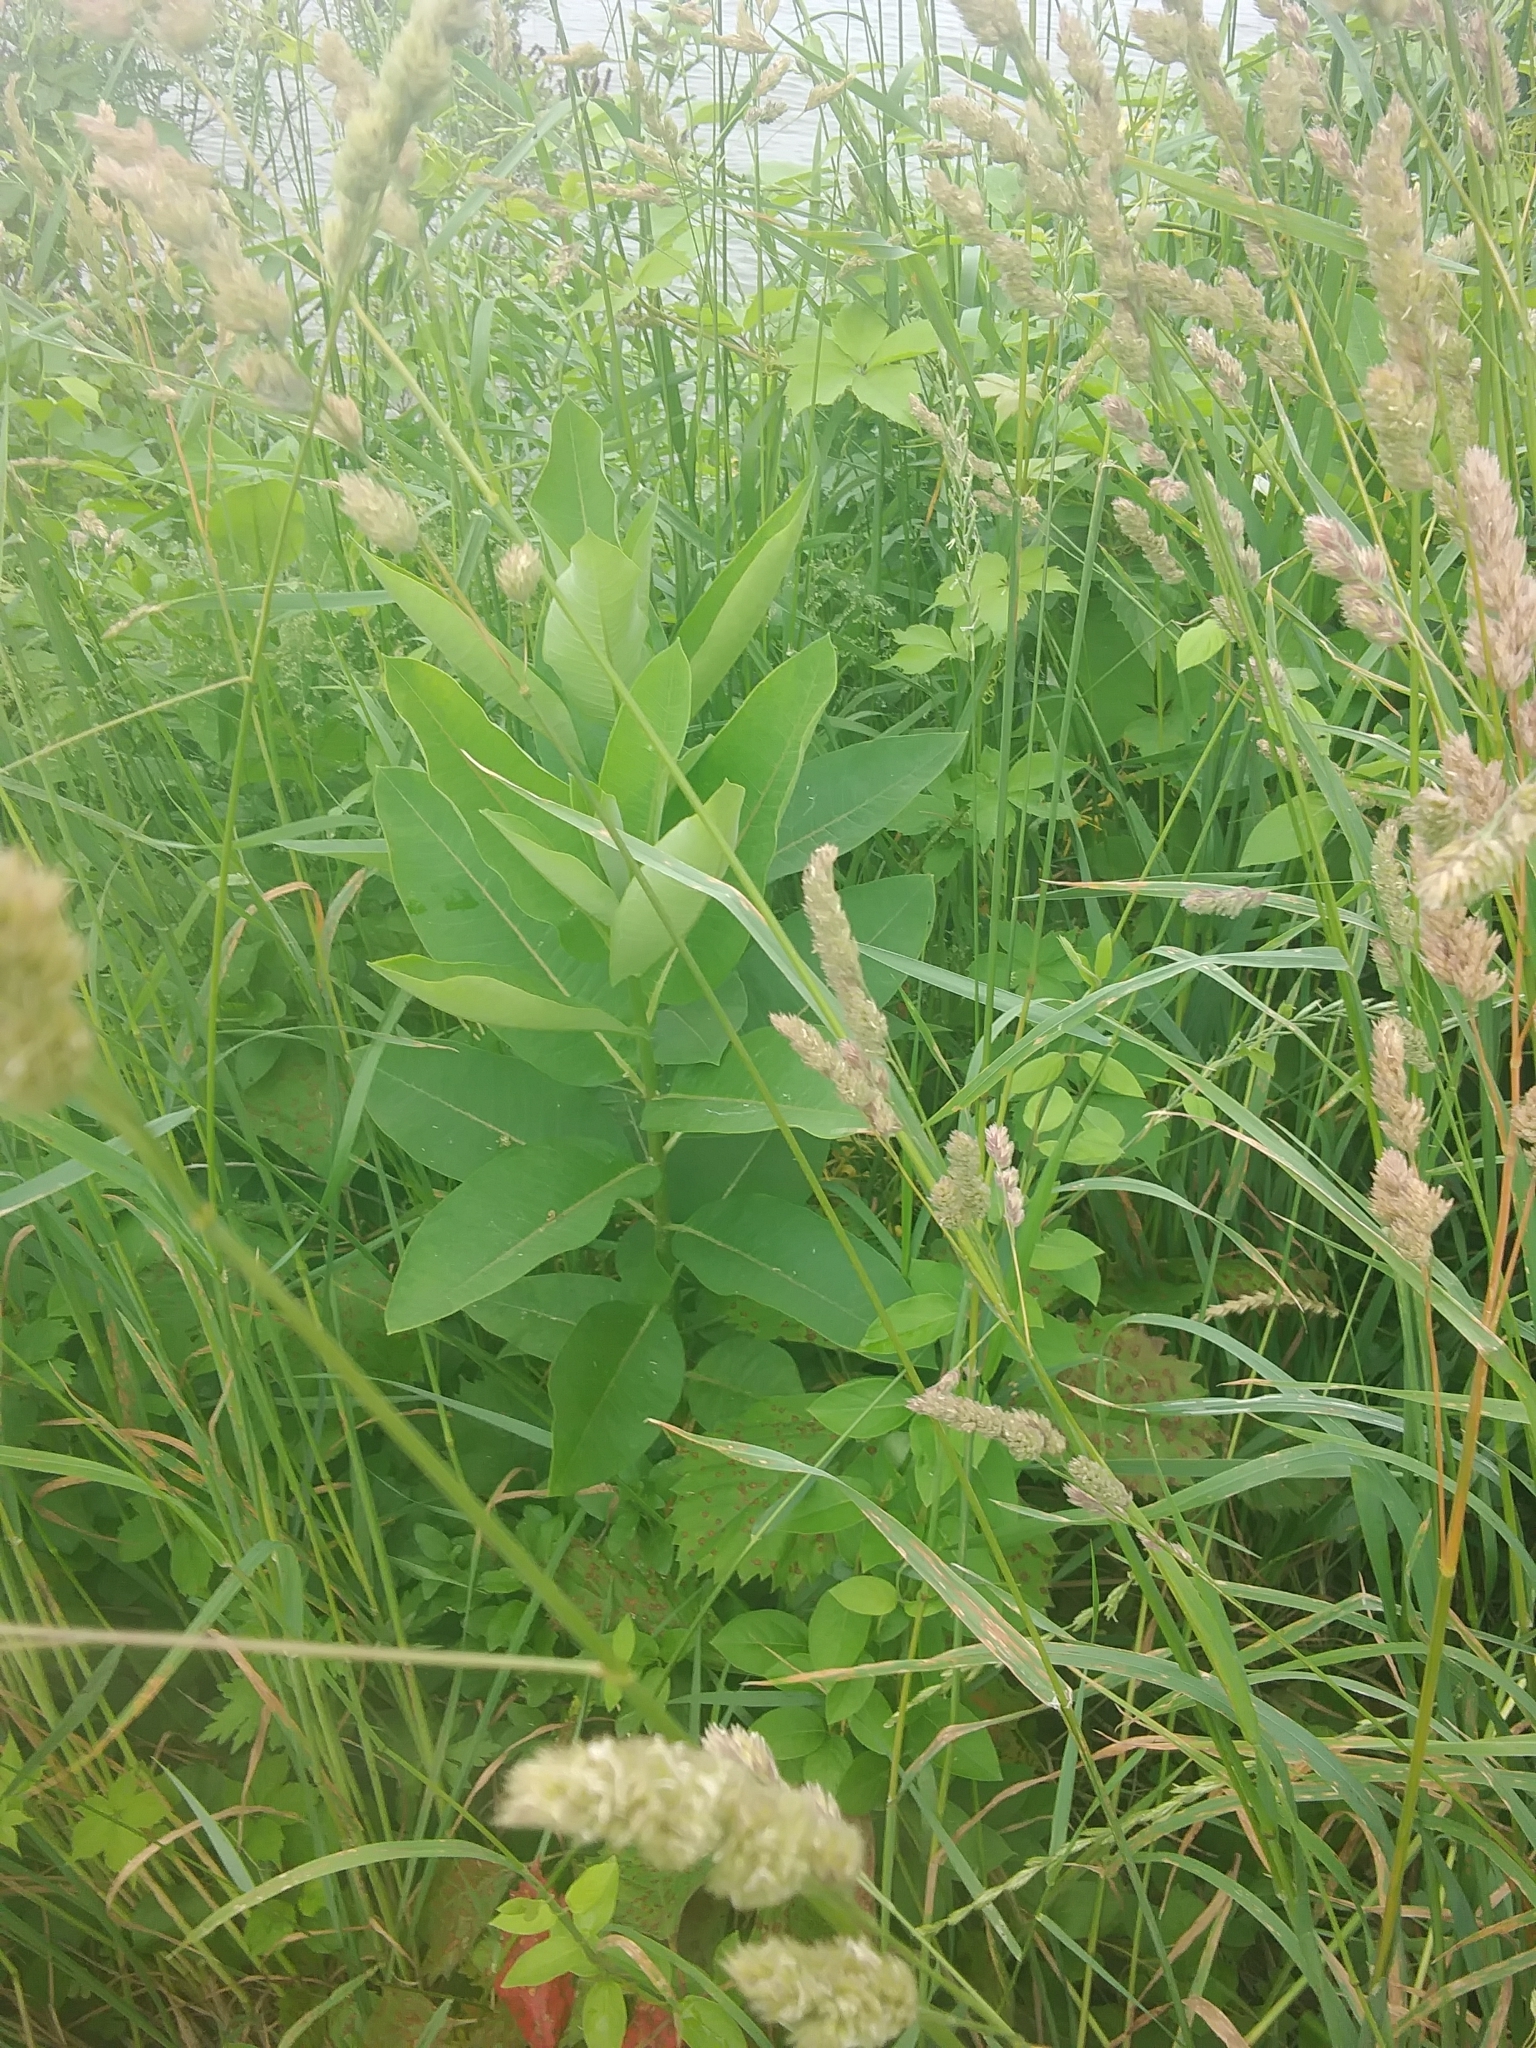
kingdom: Plantae
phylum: Tracheophyta
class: Magnoliopsida
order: Gentianales
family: Apocynaceae
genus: Asclepias
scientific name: Asclepias syriaca
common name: Common milkweed
